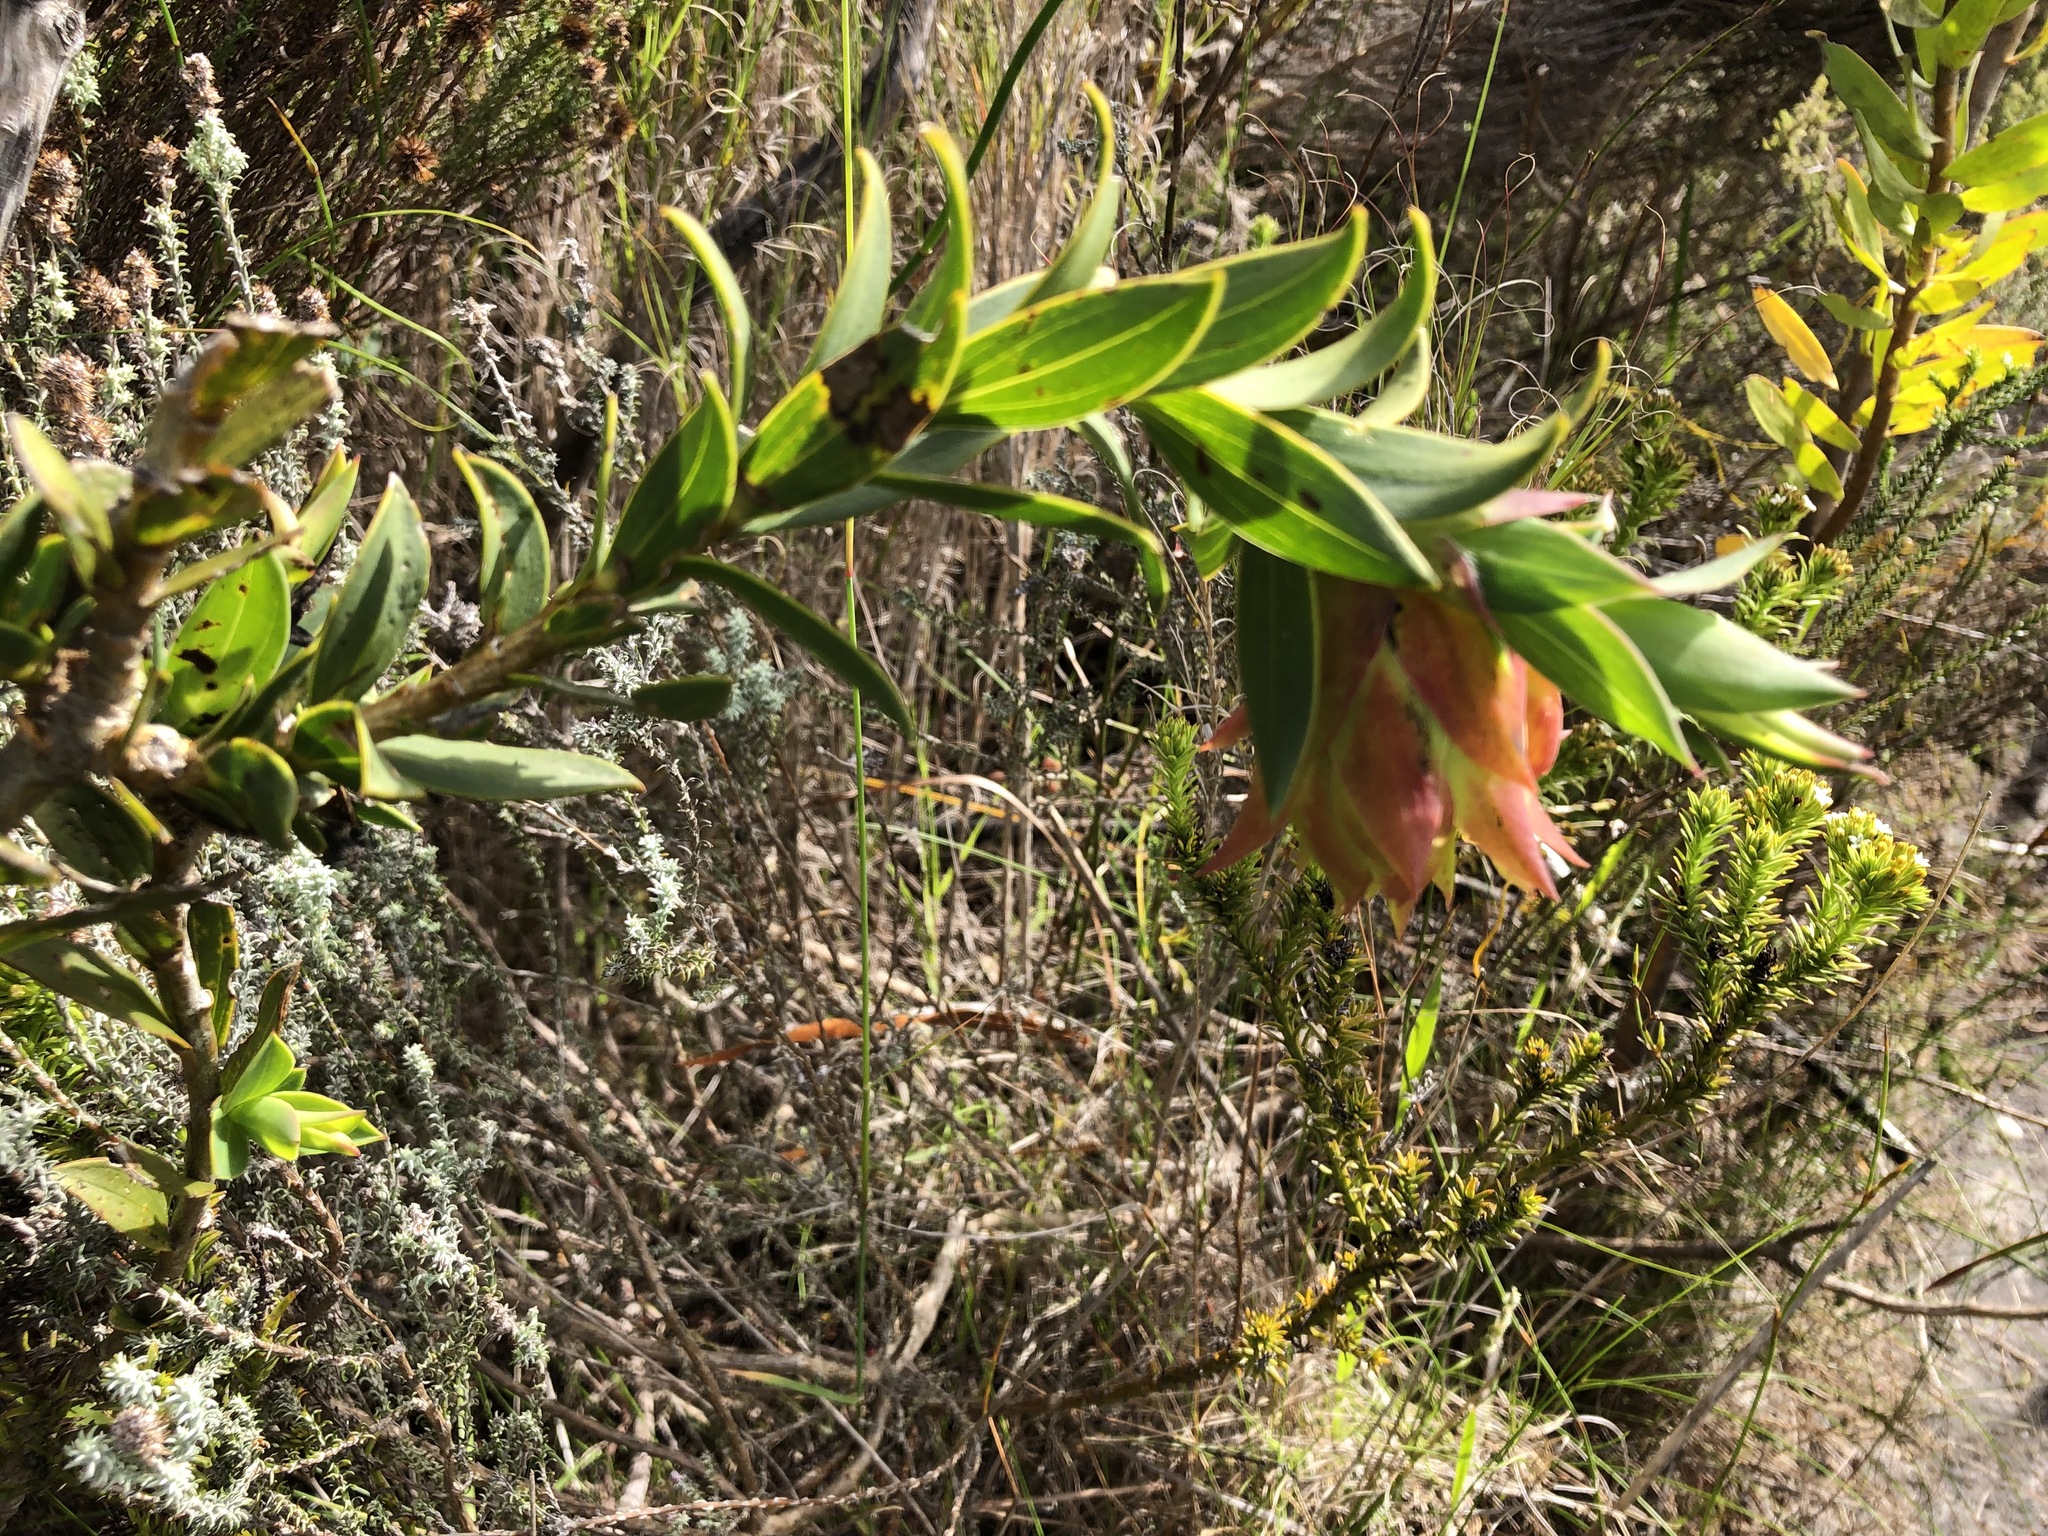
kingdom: Plantae
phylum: Tracheophyta
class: Magnoliopsida
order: Fabales
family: Fabaceae
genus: Liparia
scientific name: Liparia splendens
